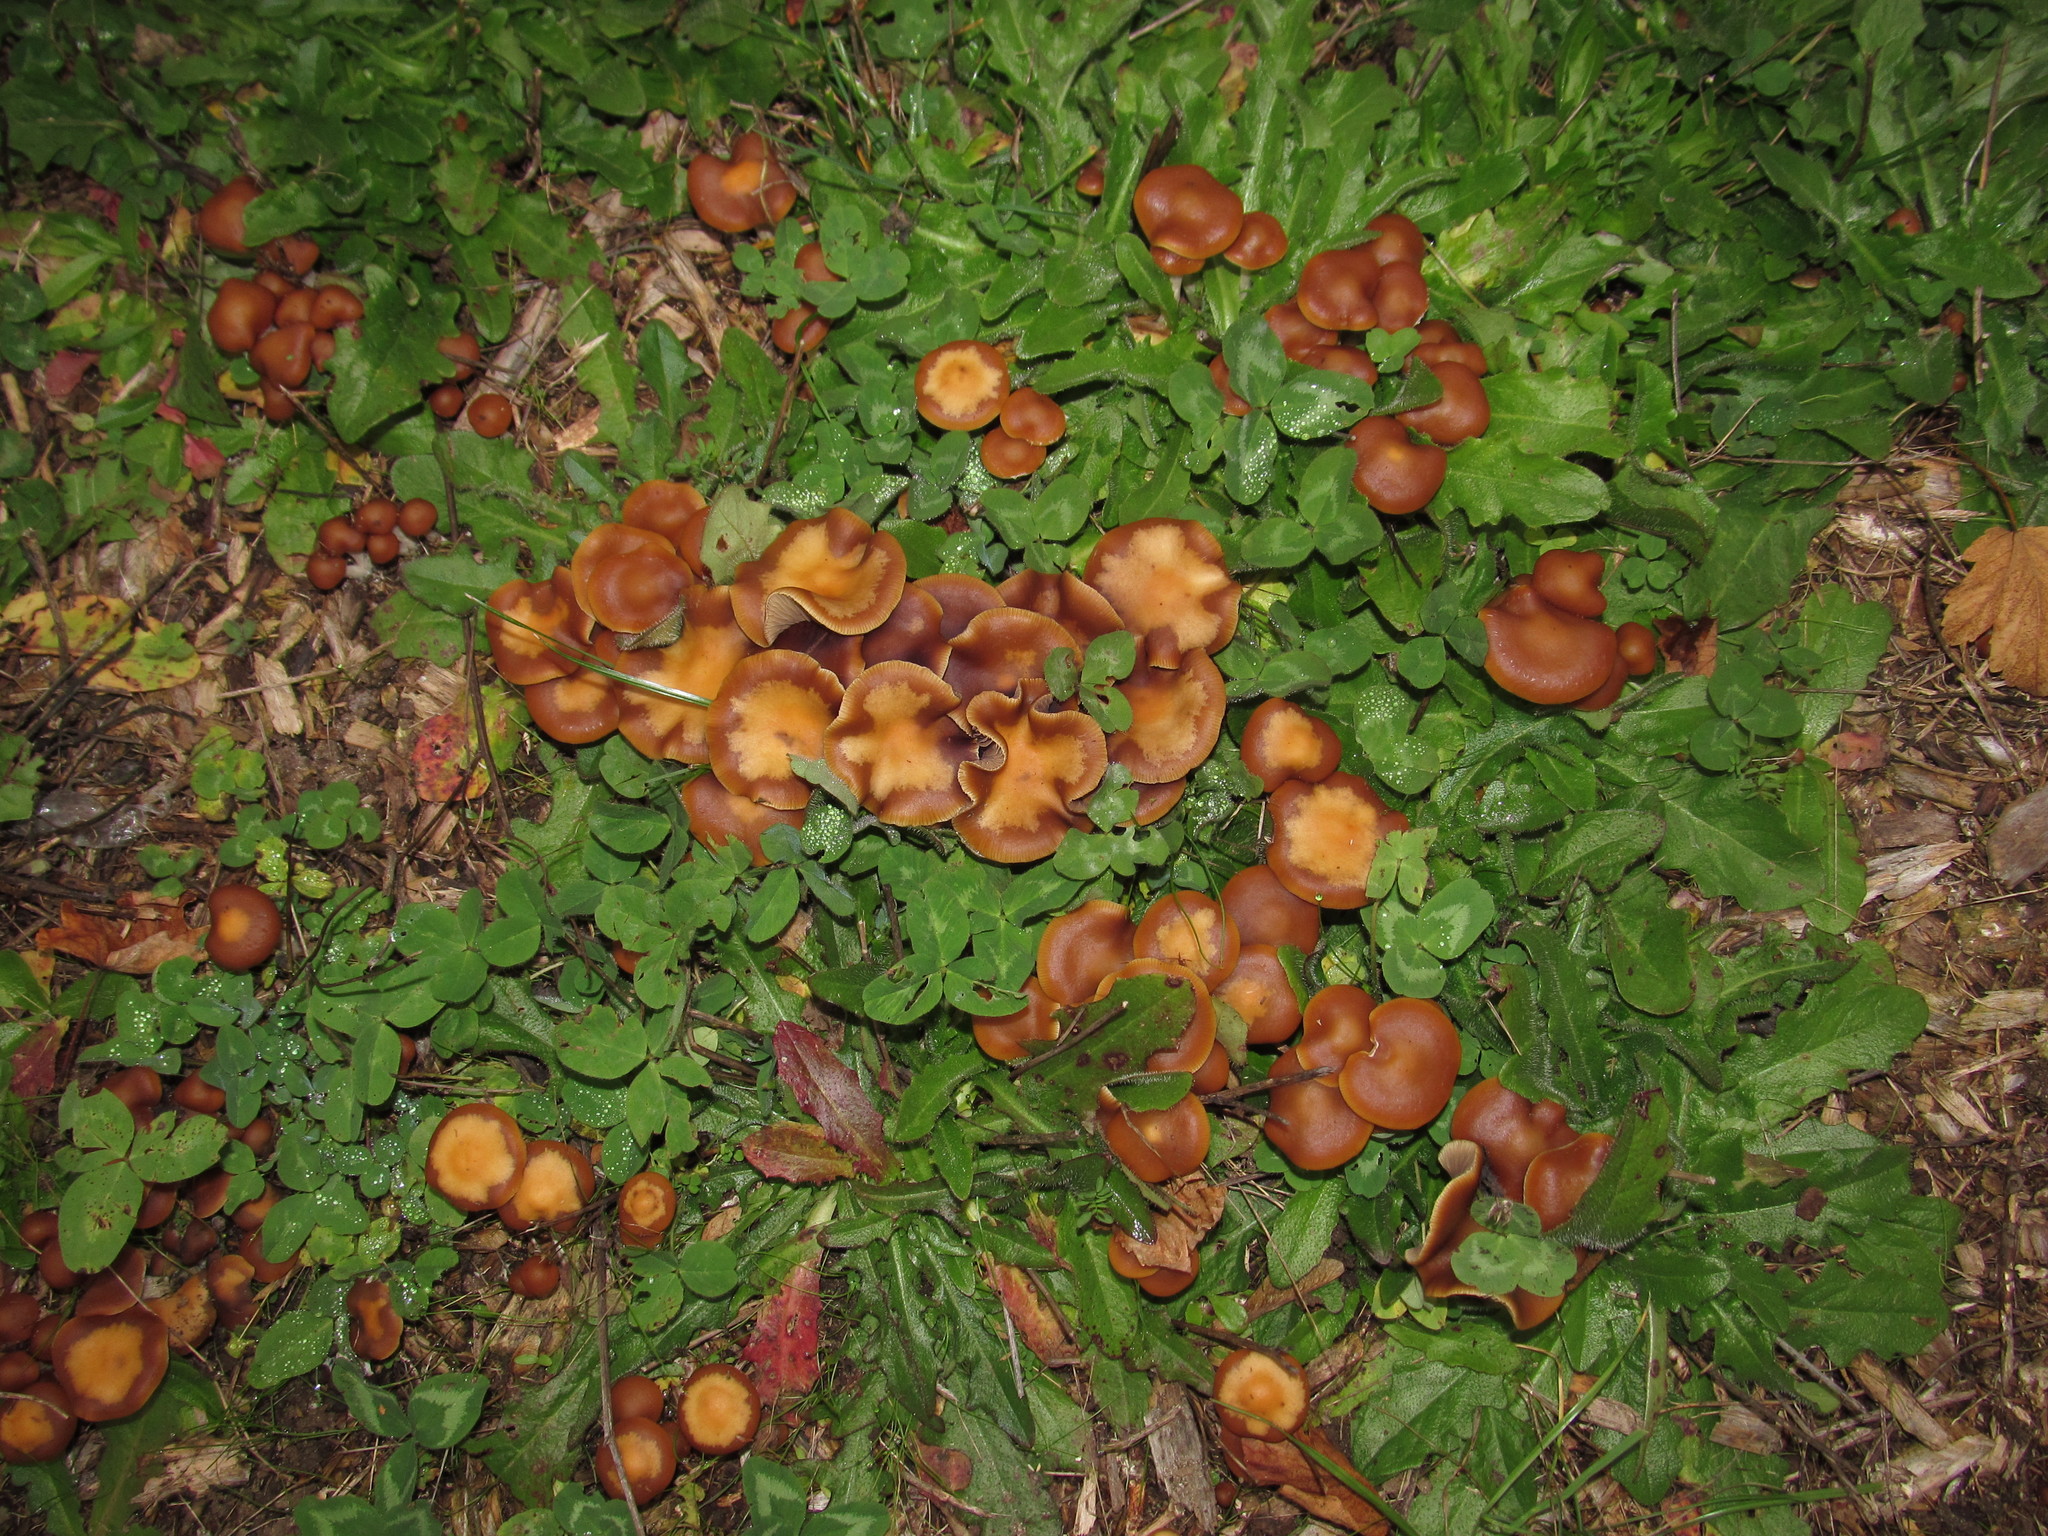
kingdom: Fungi
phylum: Basidiomycota
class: Agaricomycetes
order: Agaricales
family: Hymenogastraceae
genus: Psilocybe
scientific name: Psilocybe cyanescens
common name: Blueleg brownie
